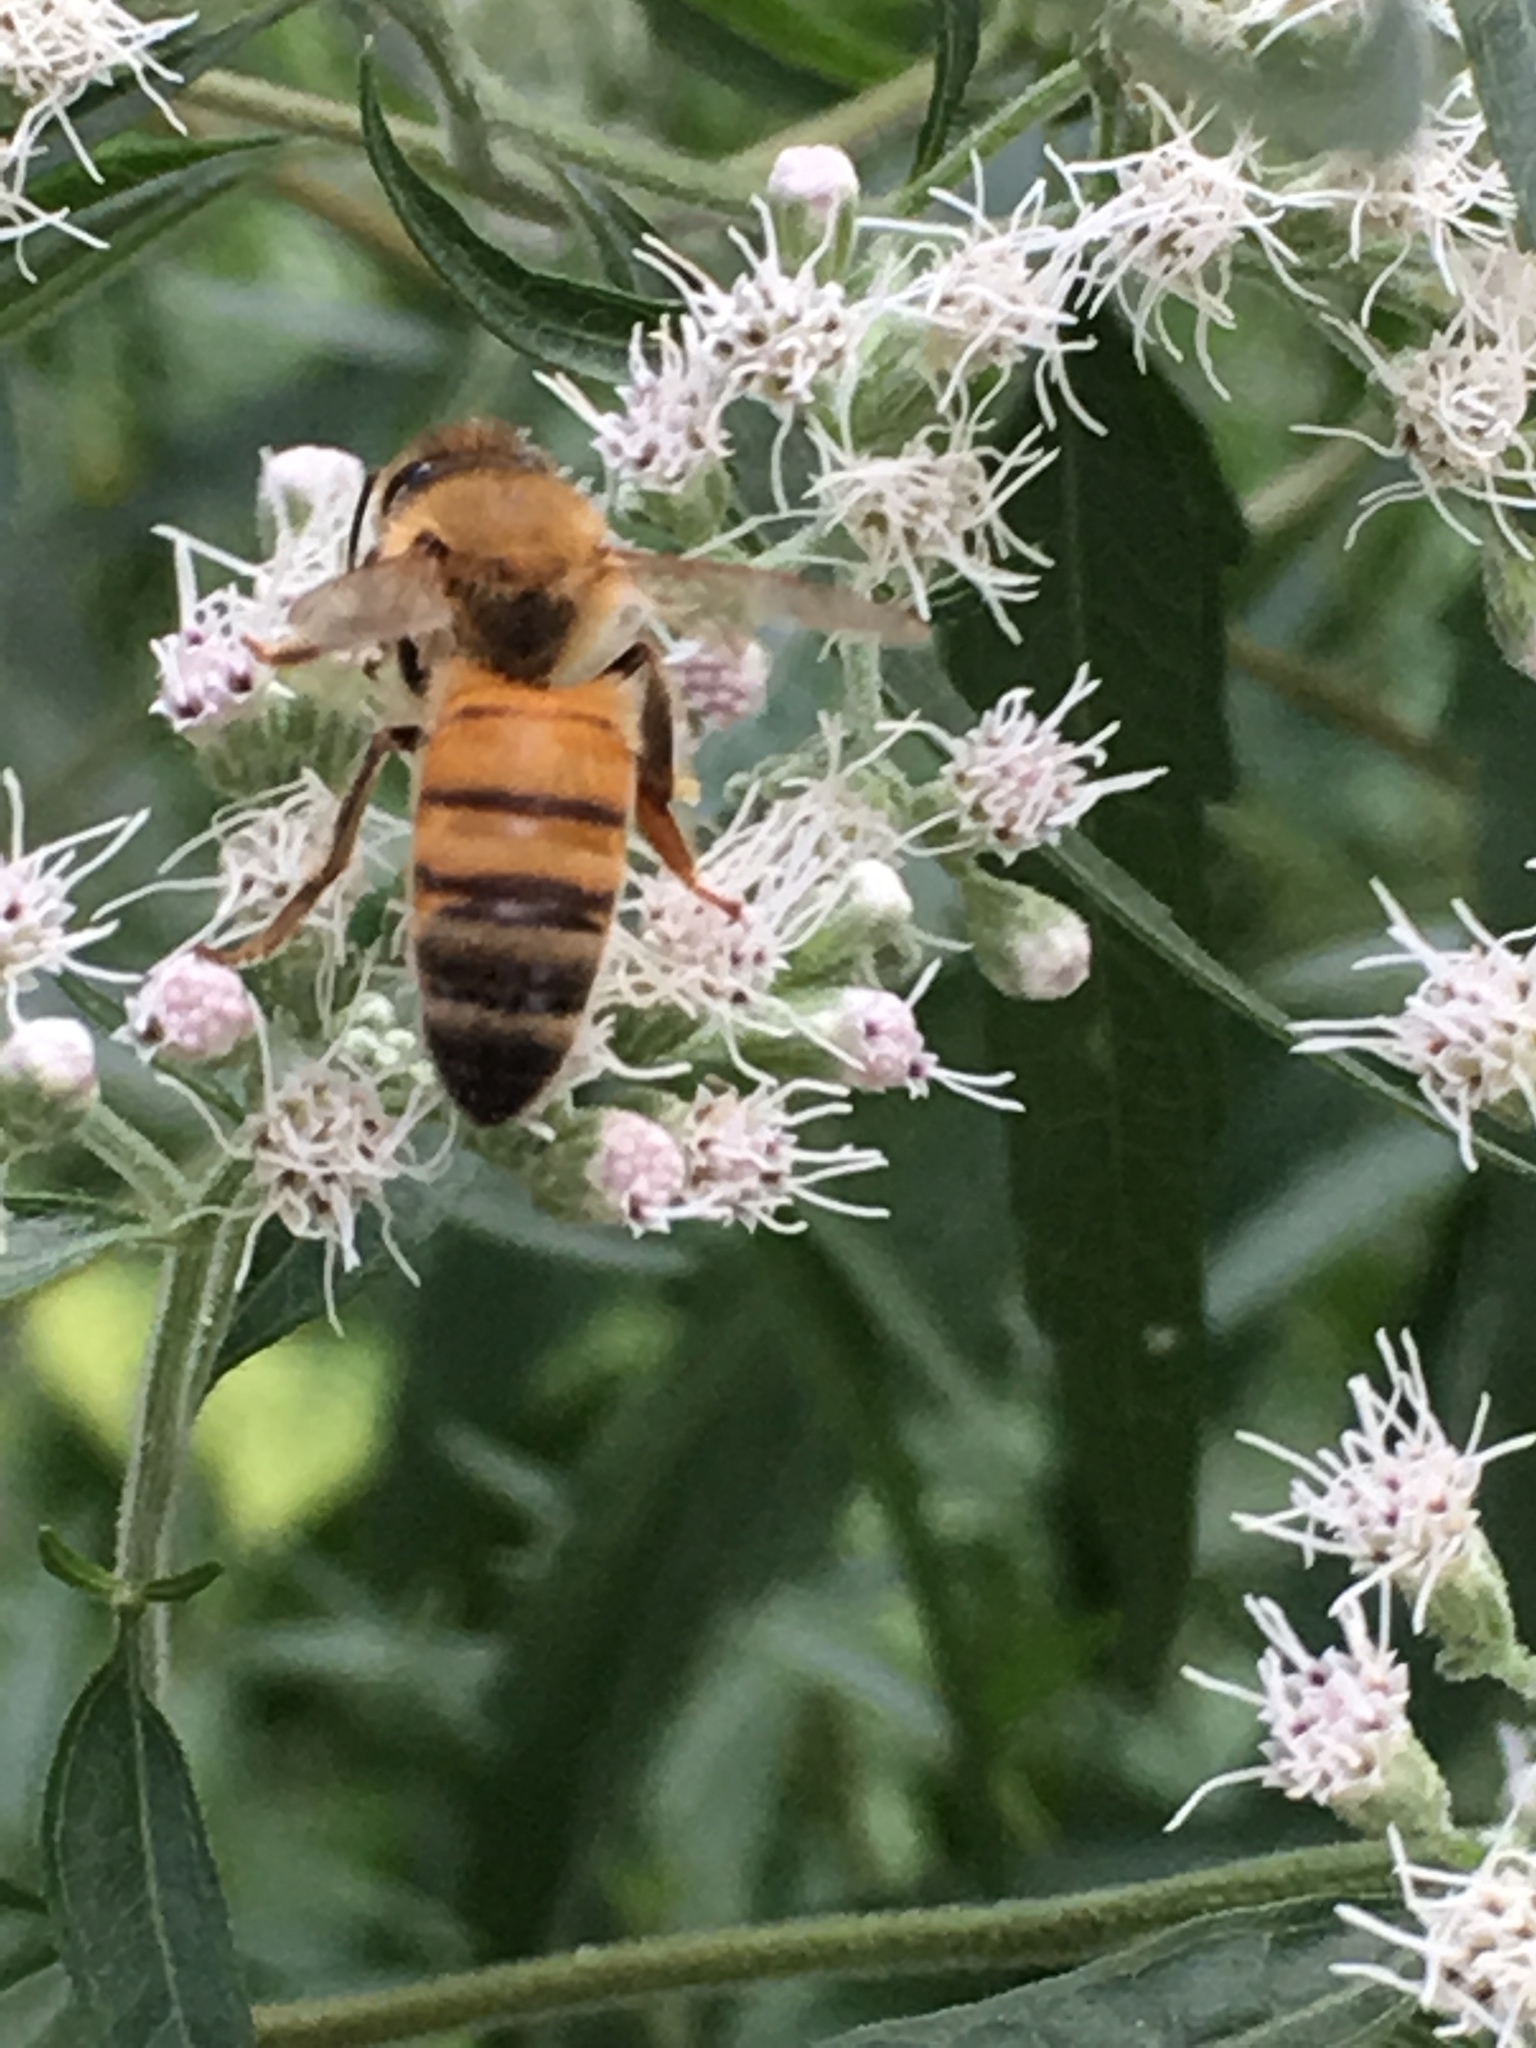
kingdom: Animalia
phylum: Arthropoda
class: Insecta
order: Hymenoptera
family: Apidae
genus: Apis
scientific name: Apis mellifera
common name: Honey bee
